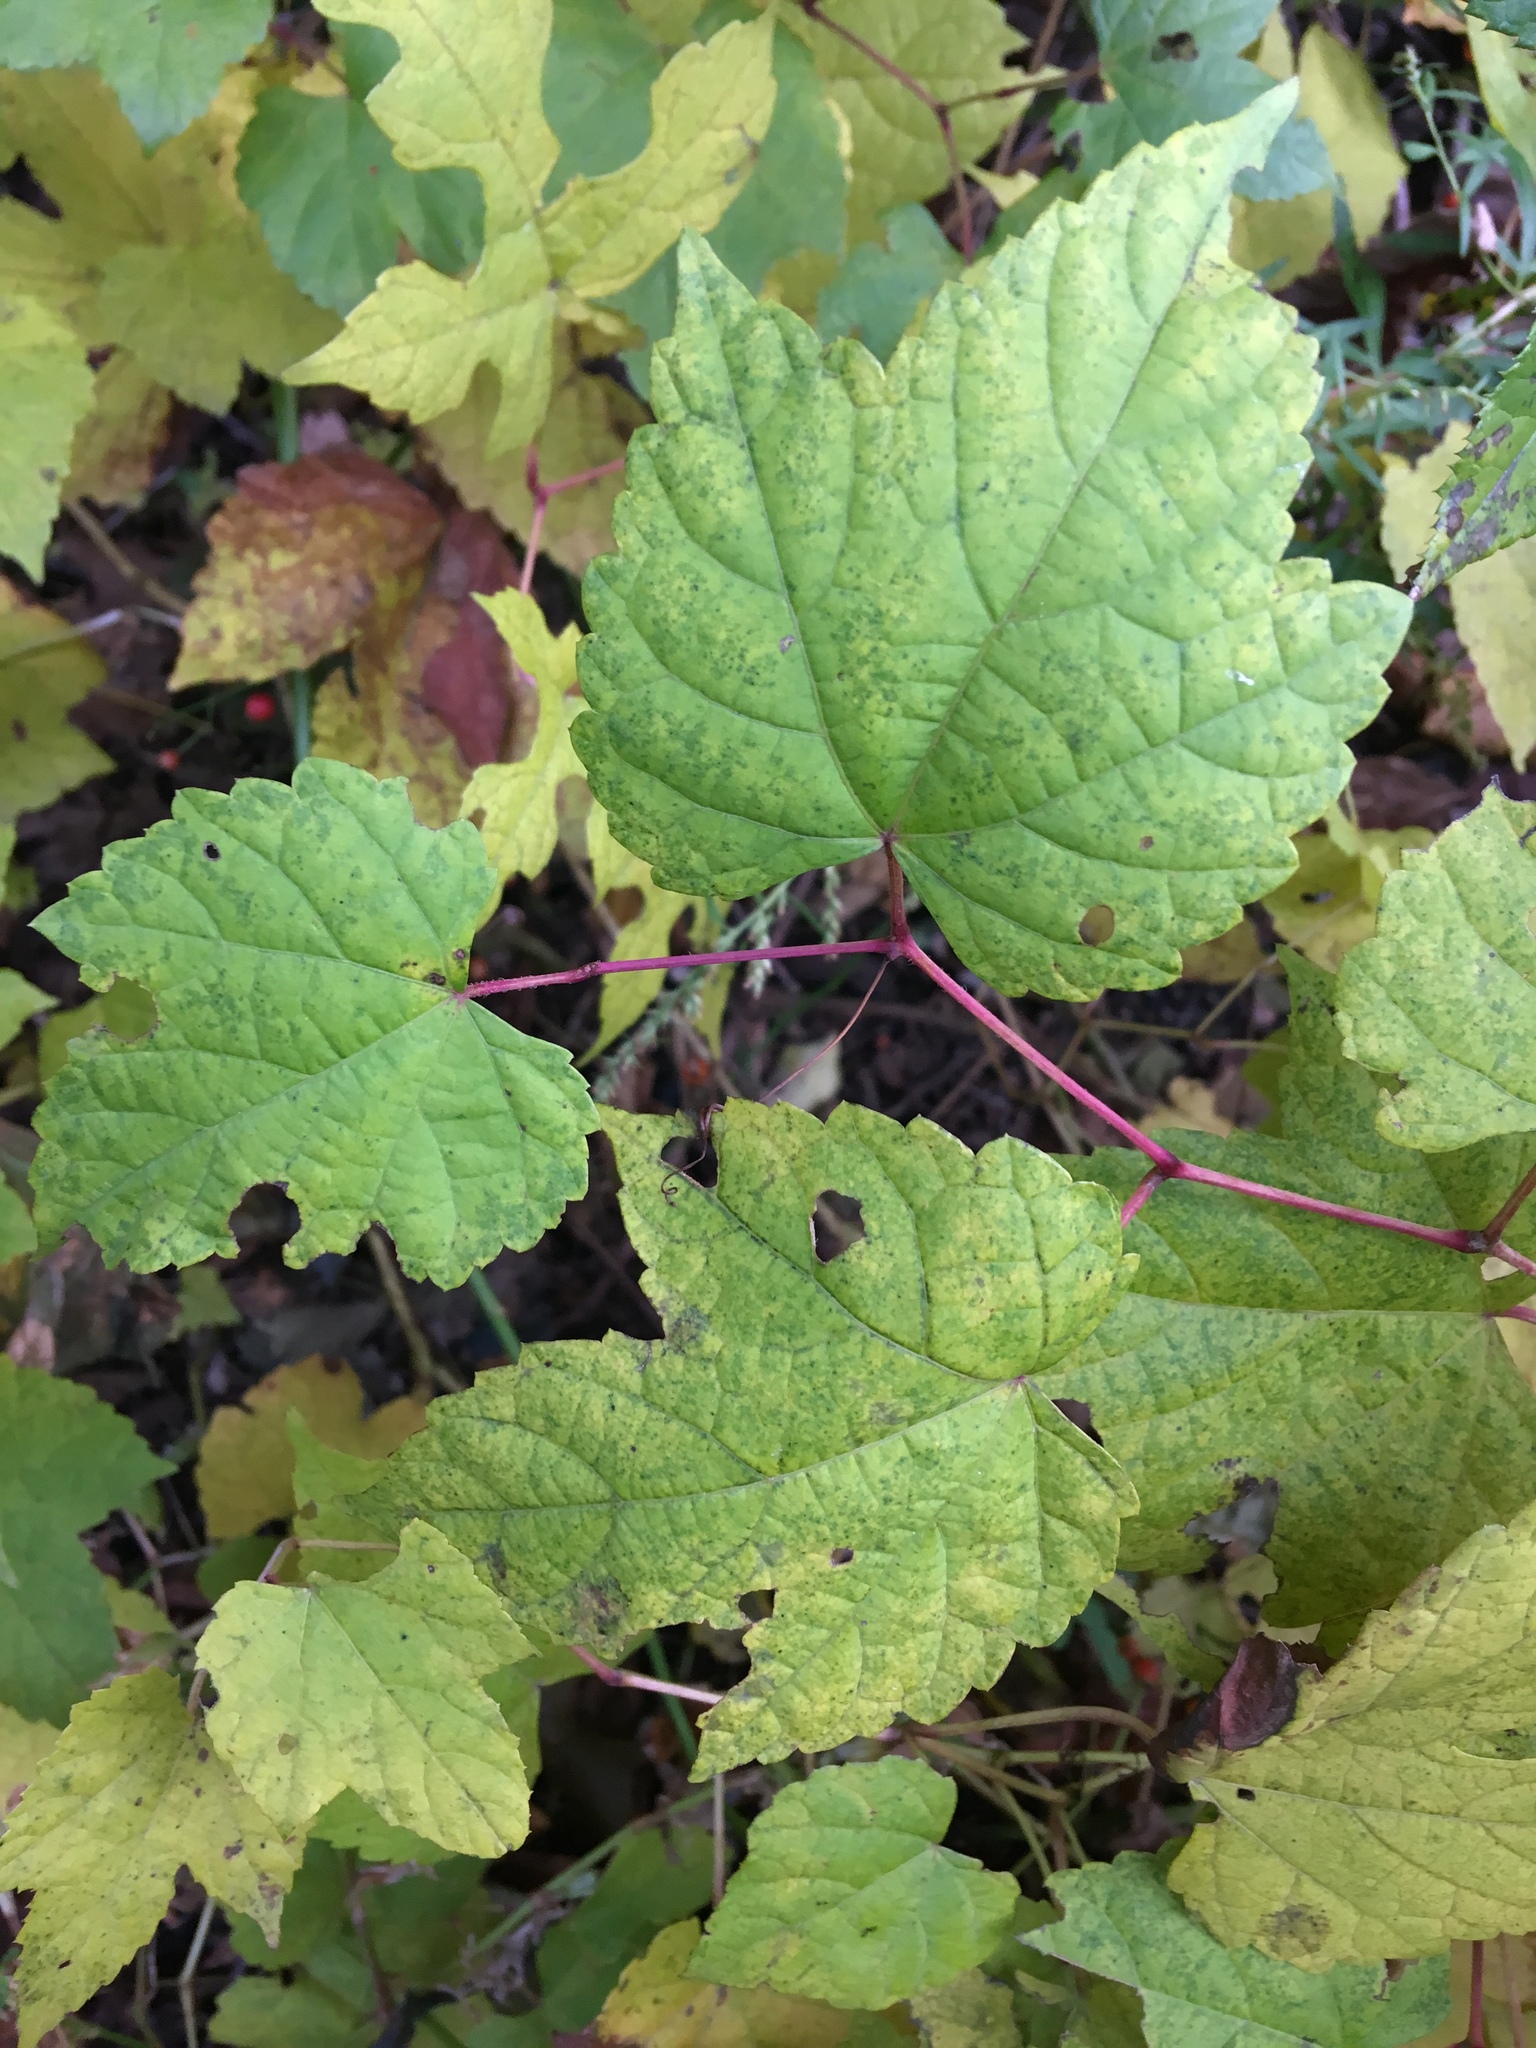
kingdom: Plantae
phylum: Tracheophyta
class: Magnoliopsida
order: Vitales
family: Vitaceae
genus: Ampelopsis
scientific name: Ampelopsis glandulosa
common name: Amur peppervine
